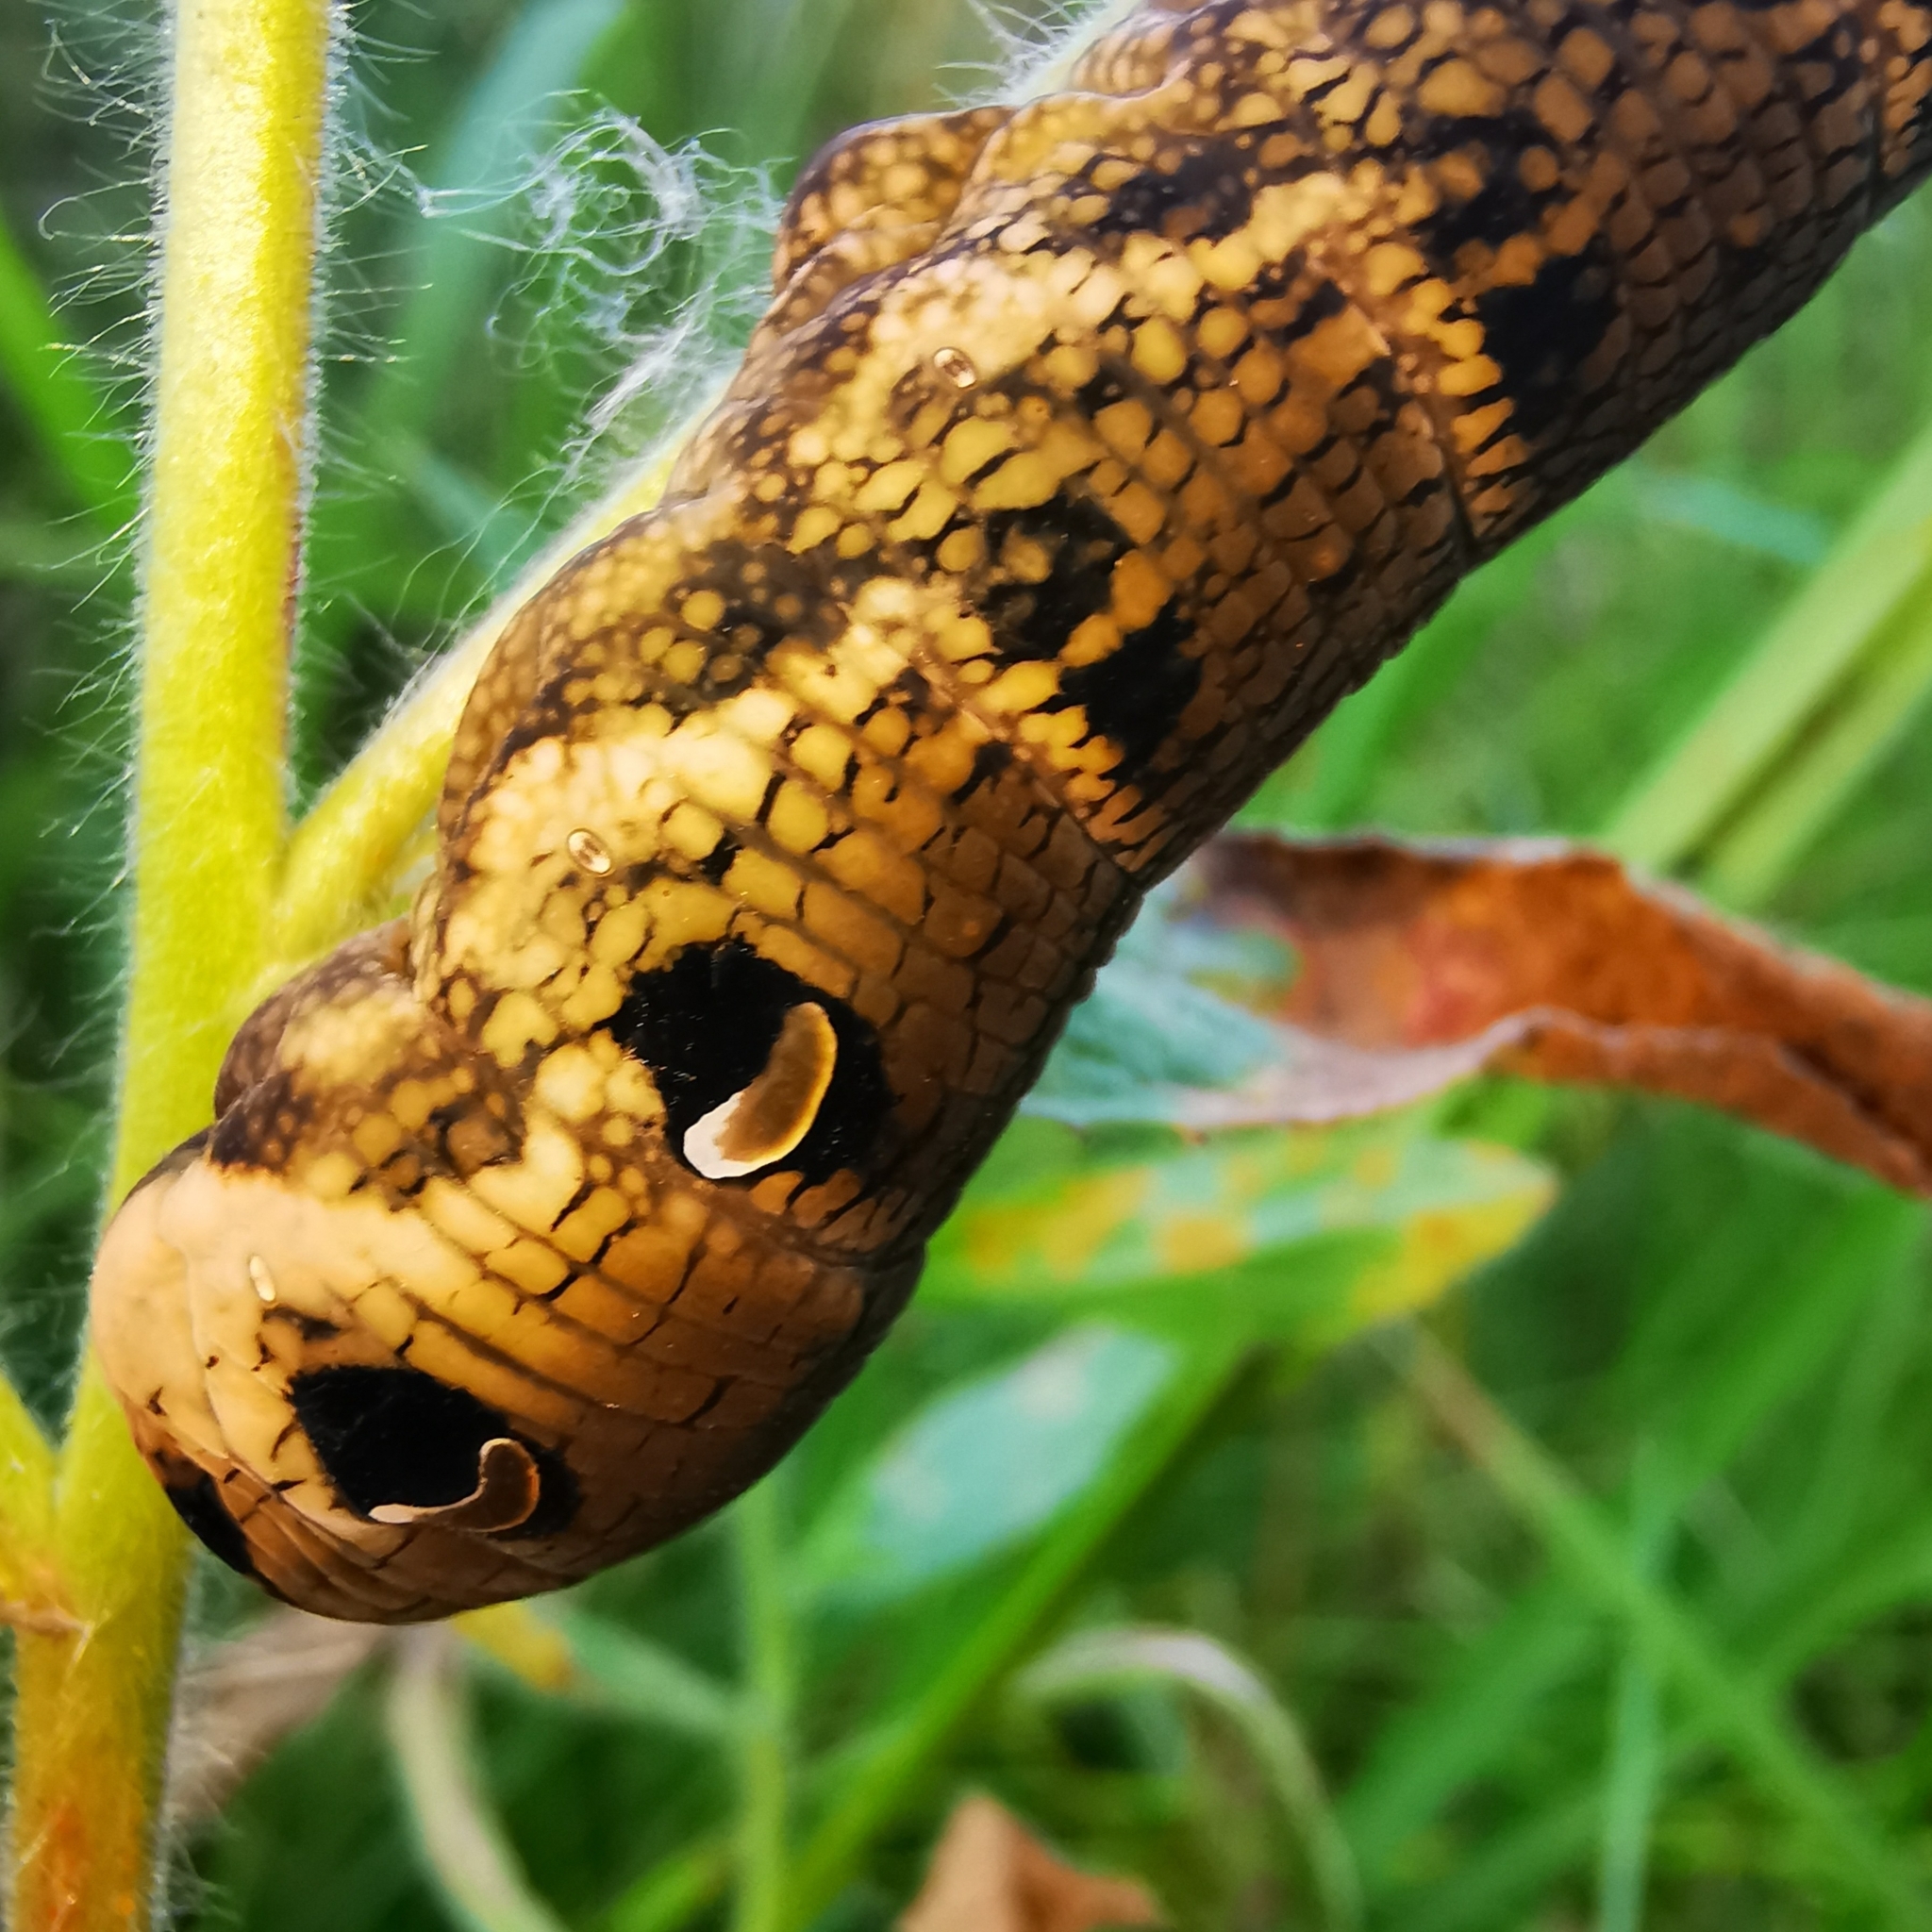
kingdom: Animalia
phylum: Arthropoda
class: Insecta
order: Lepidoptera
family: Sphingidae
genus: Deilephila
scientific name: Deilephila elpenor
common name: Elephant hawk-moth
